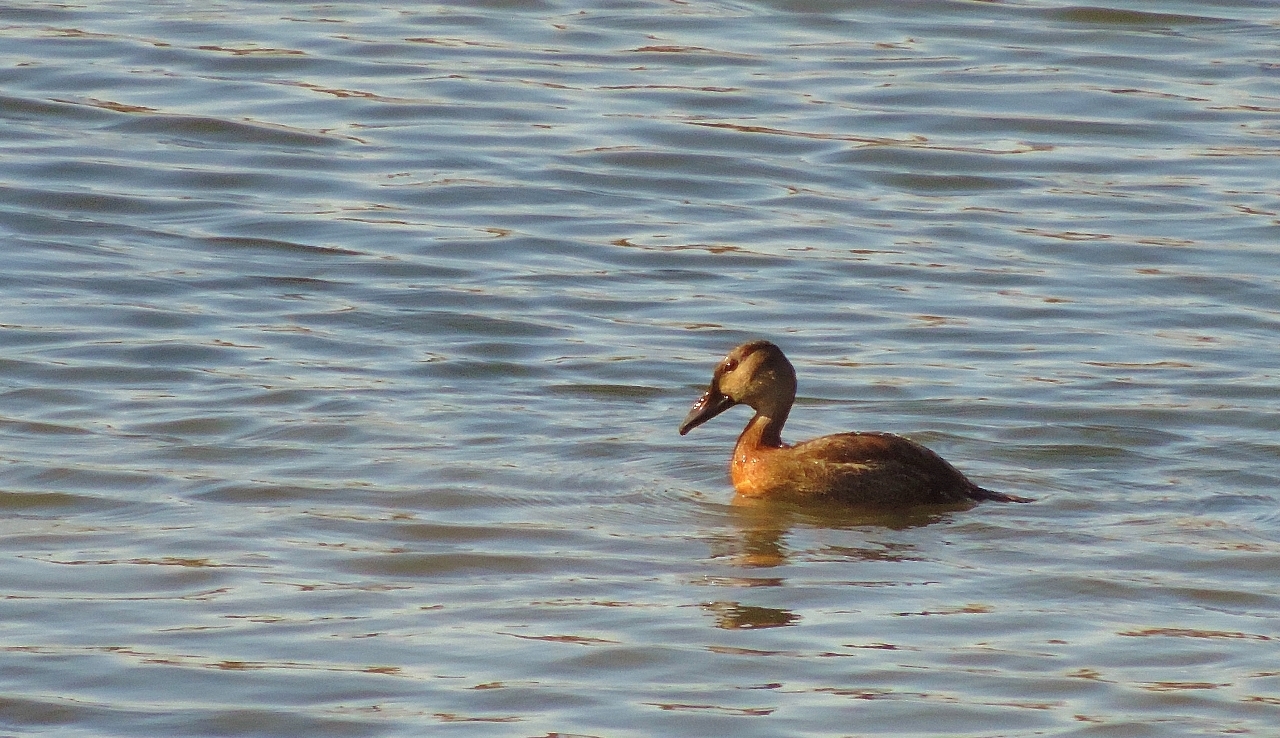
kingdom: Animalia
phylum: Chordata
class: Aves
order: Anseriformes
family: Anatidae
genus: Dendrocygna
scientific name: Dendrocygna viduata
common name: White-faced whistling duck
